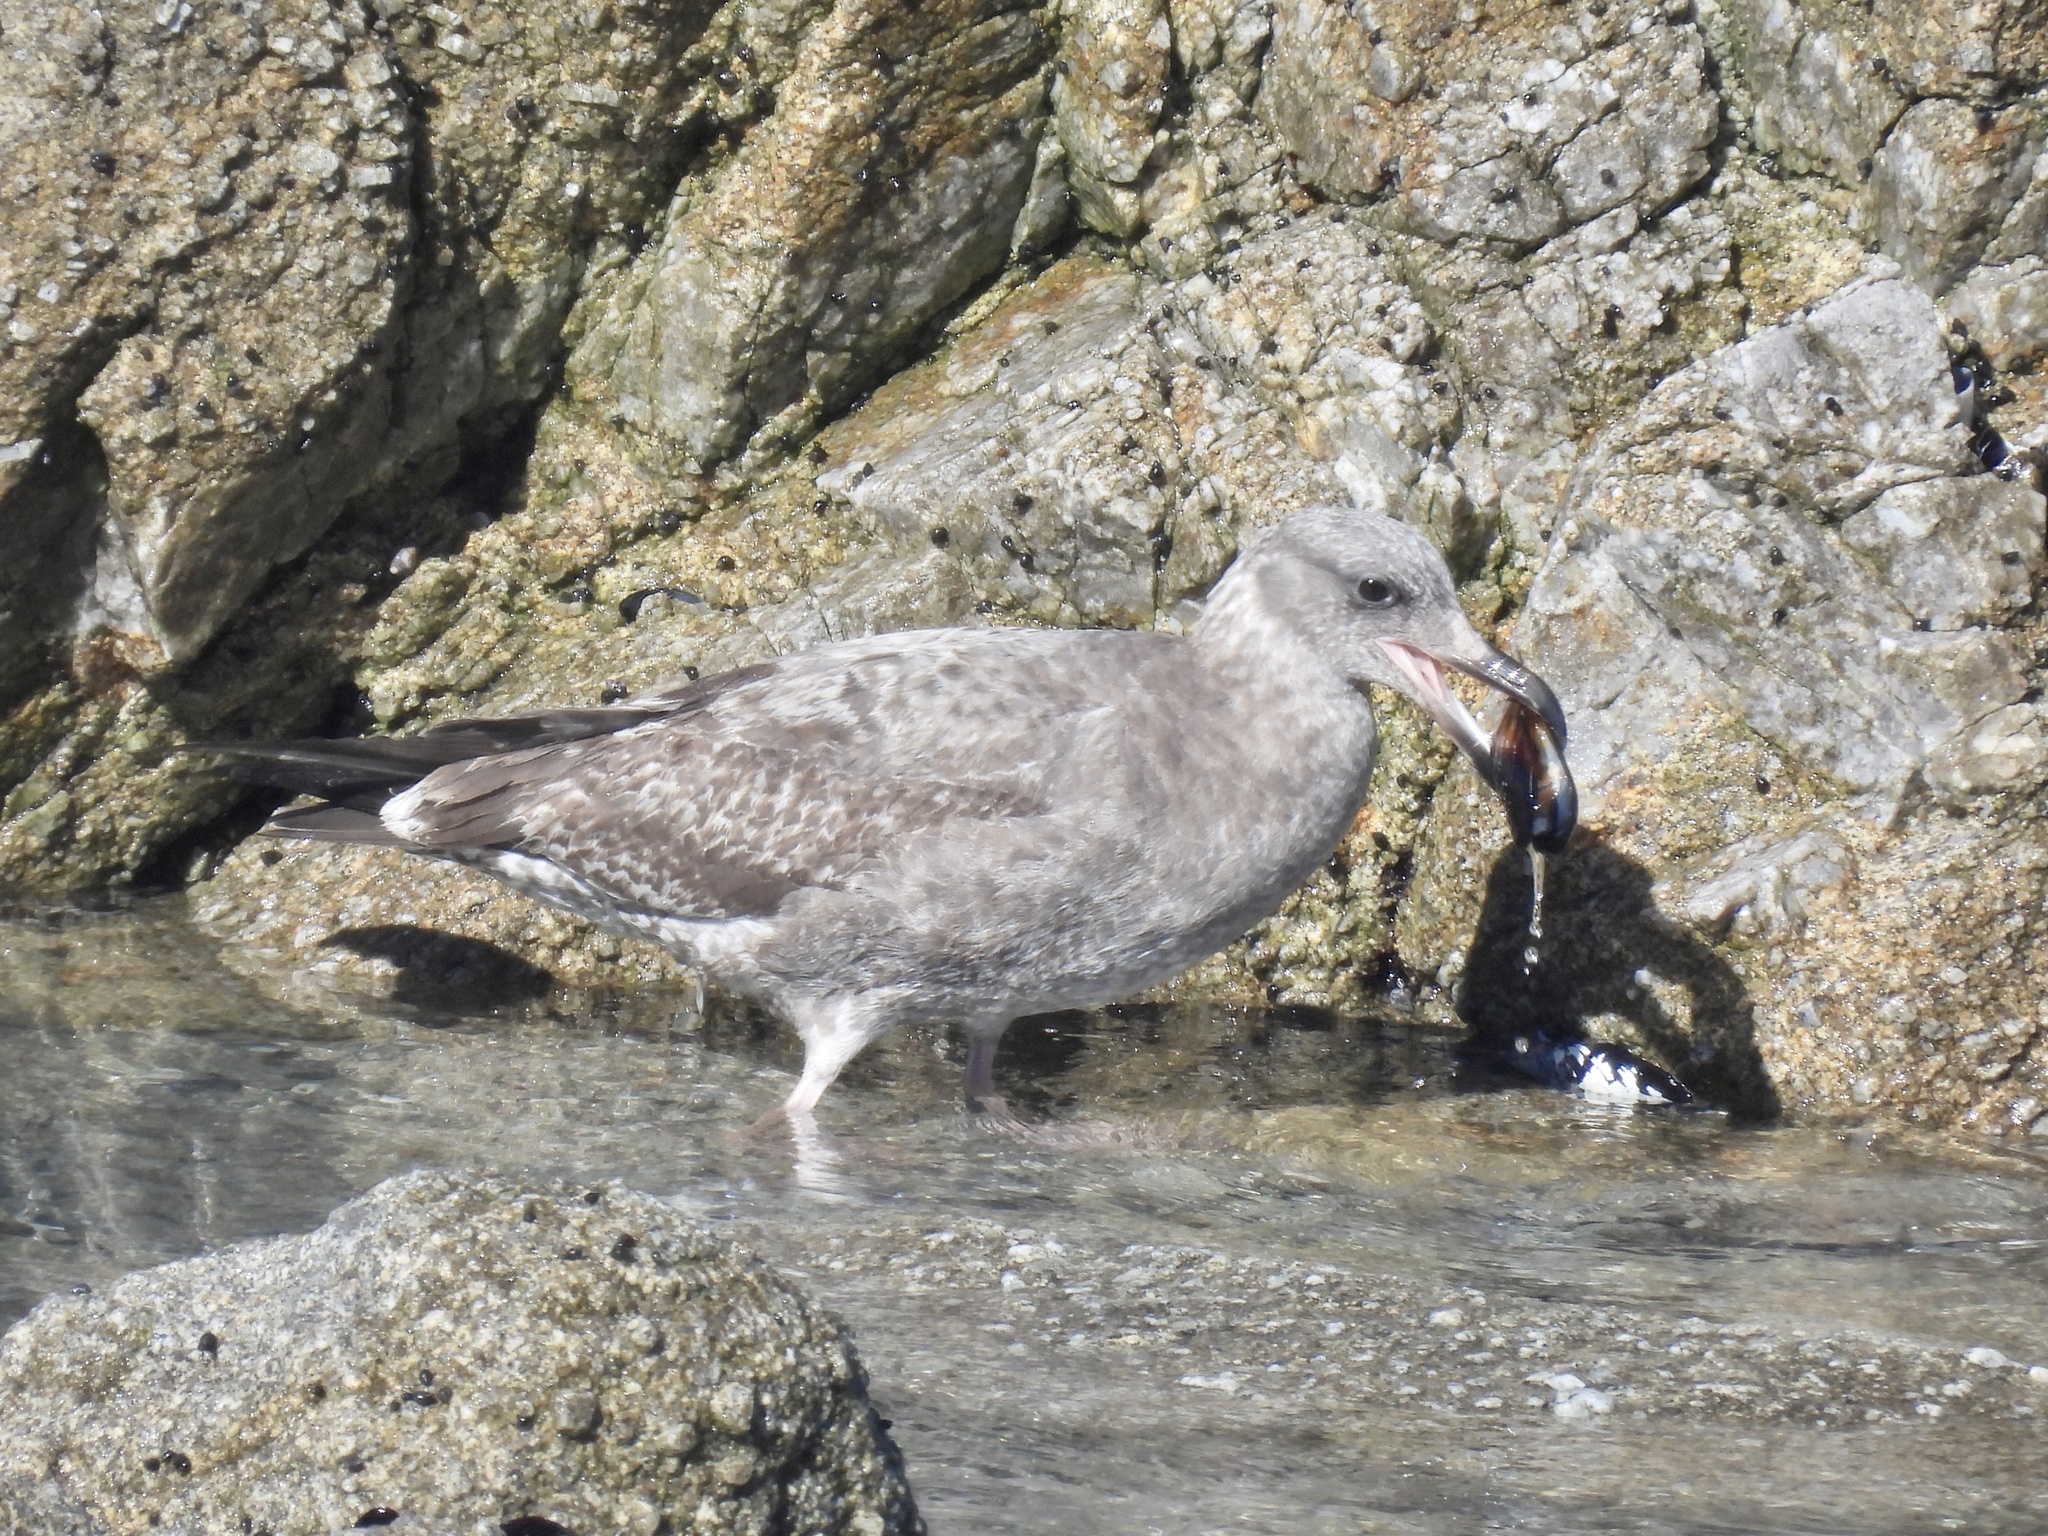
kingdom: Animalia
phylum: Chordata
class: Aves
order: Charadriiformes
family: Laridae
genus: Larus
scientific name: Larus occidentalis
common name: Western gull
